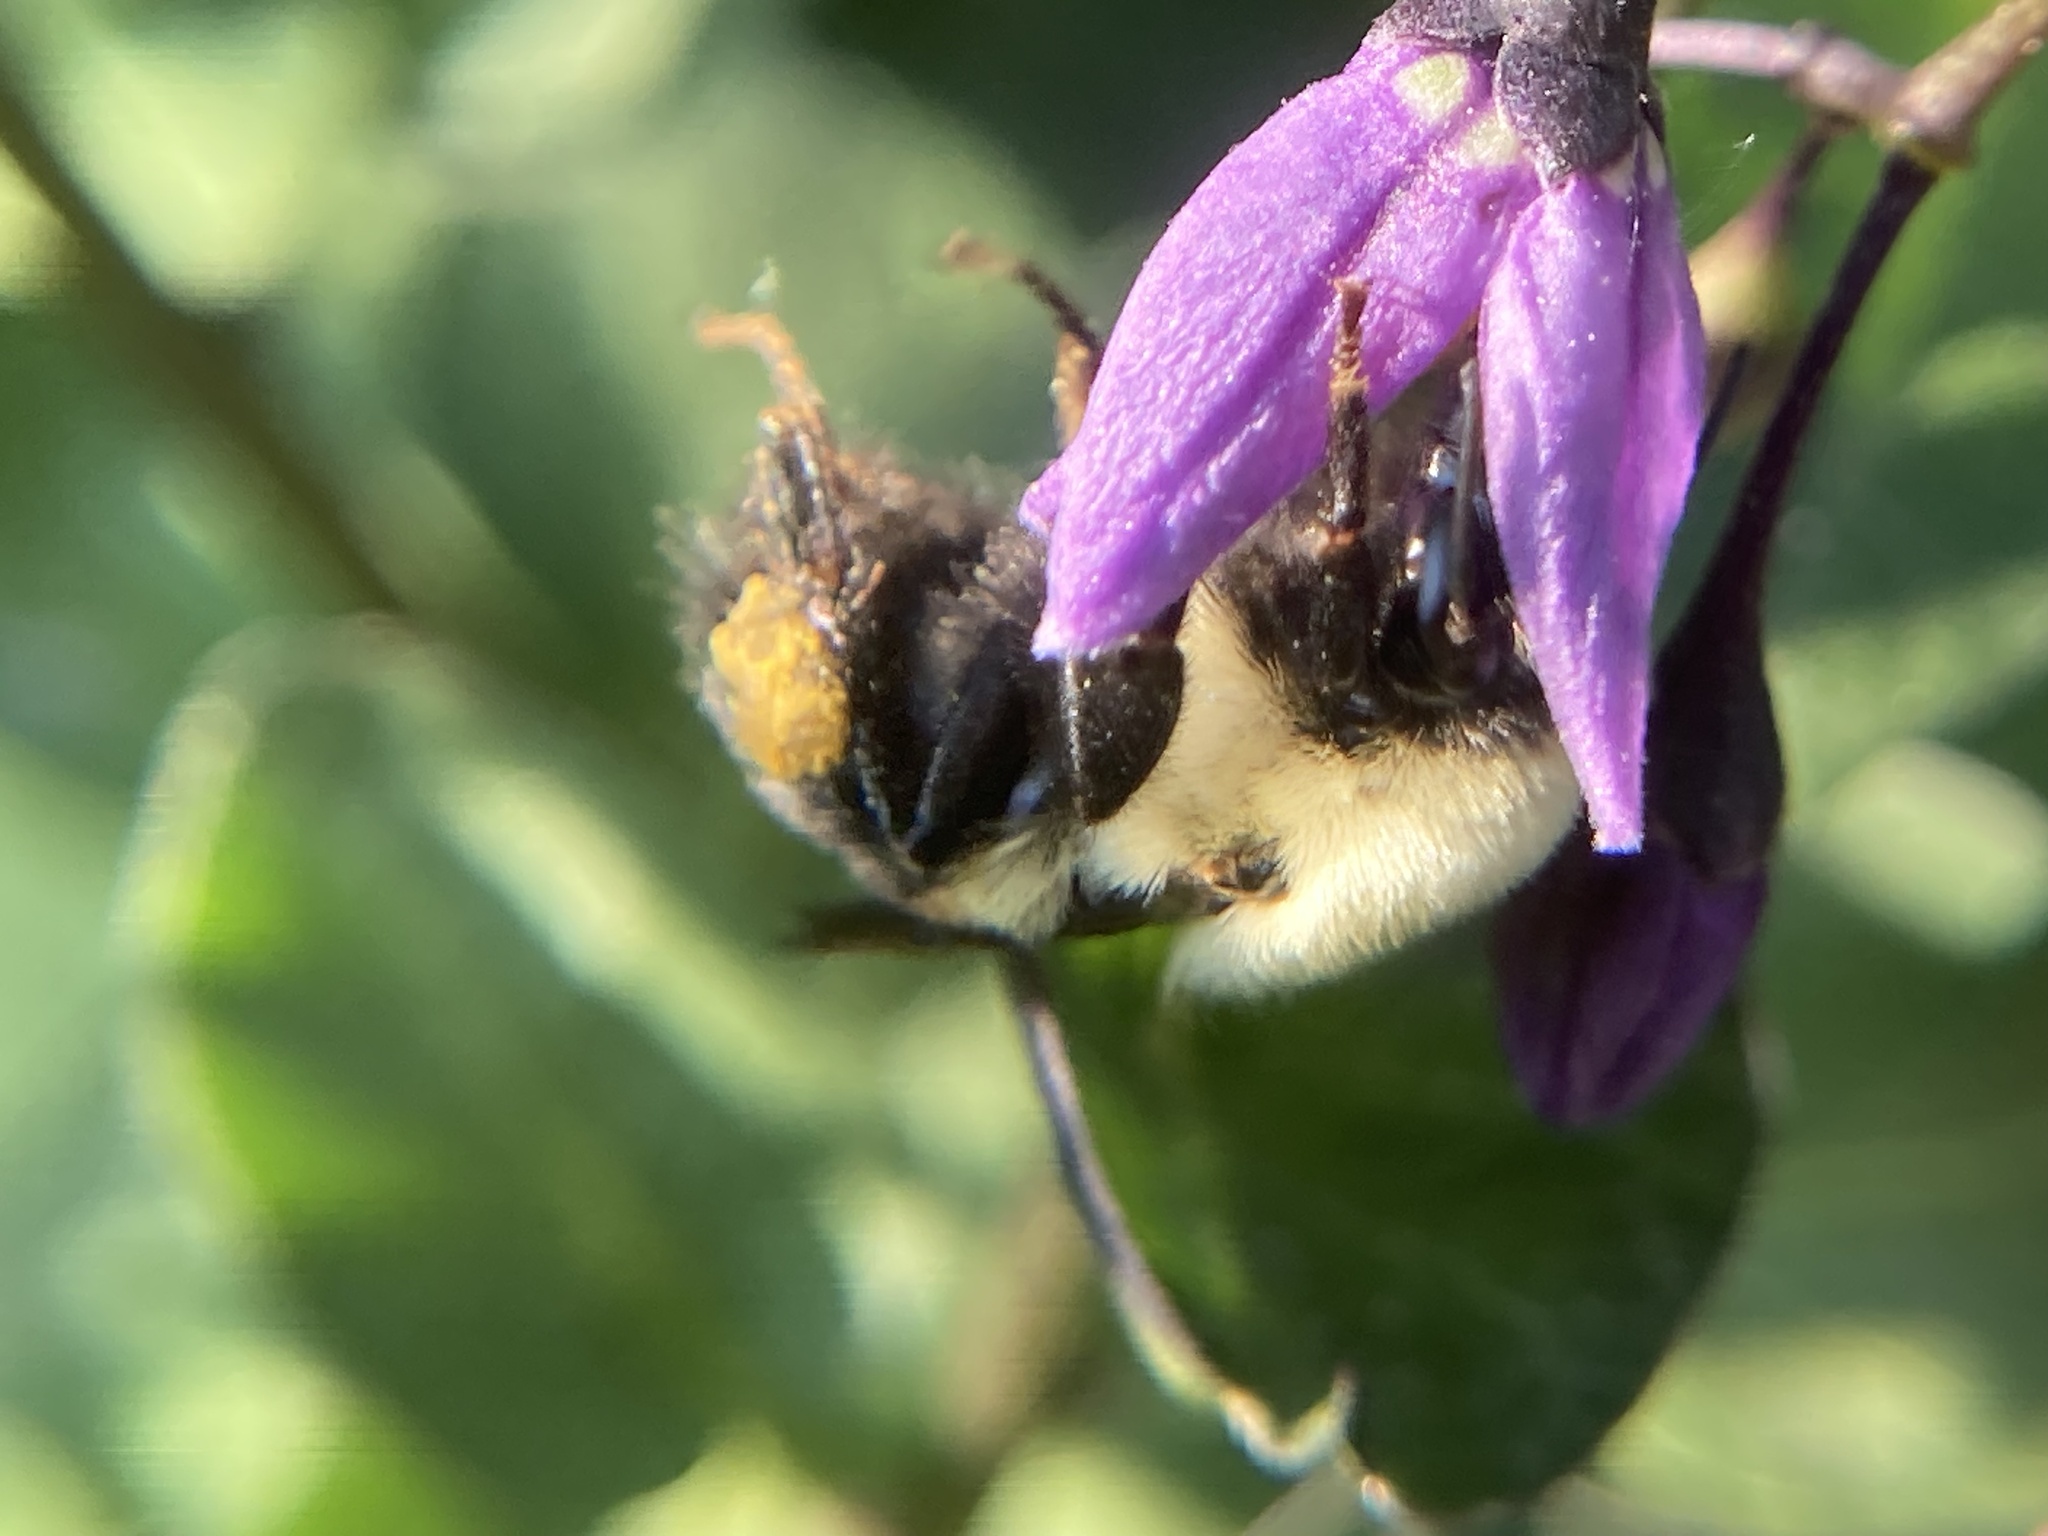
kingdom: Animalia
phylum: Arthropoda
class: Insecta
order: Hymenoptera
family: Apidae
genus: Bombus
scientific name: Bombus griseocollis
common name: Brown-belted bumble bee
